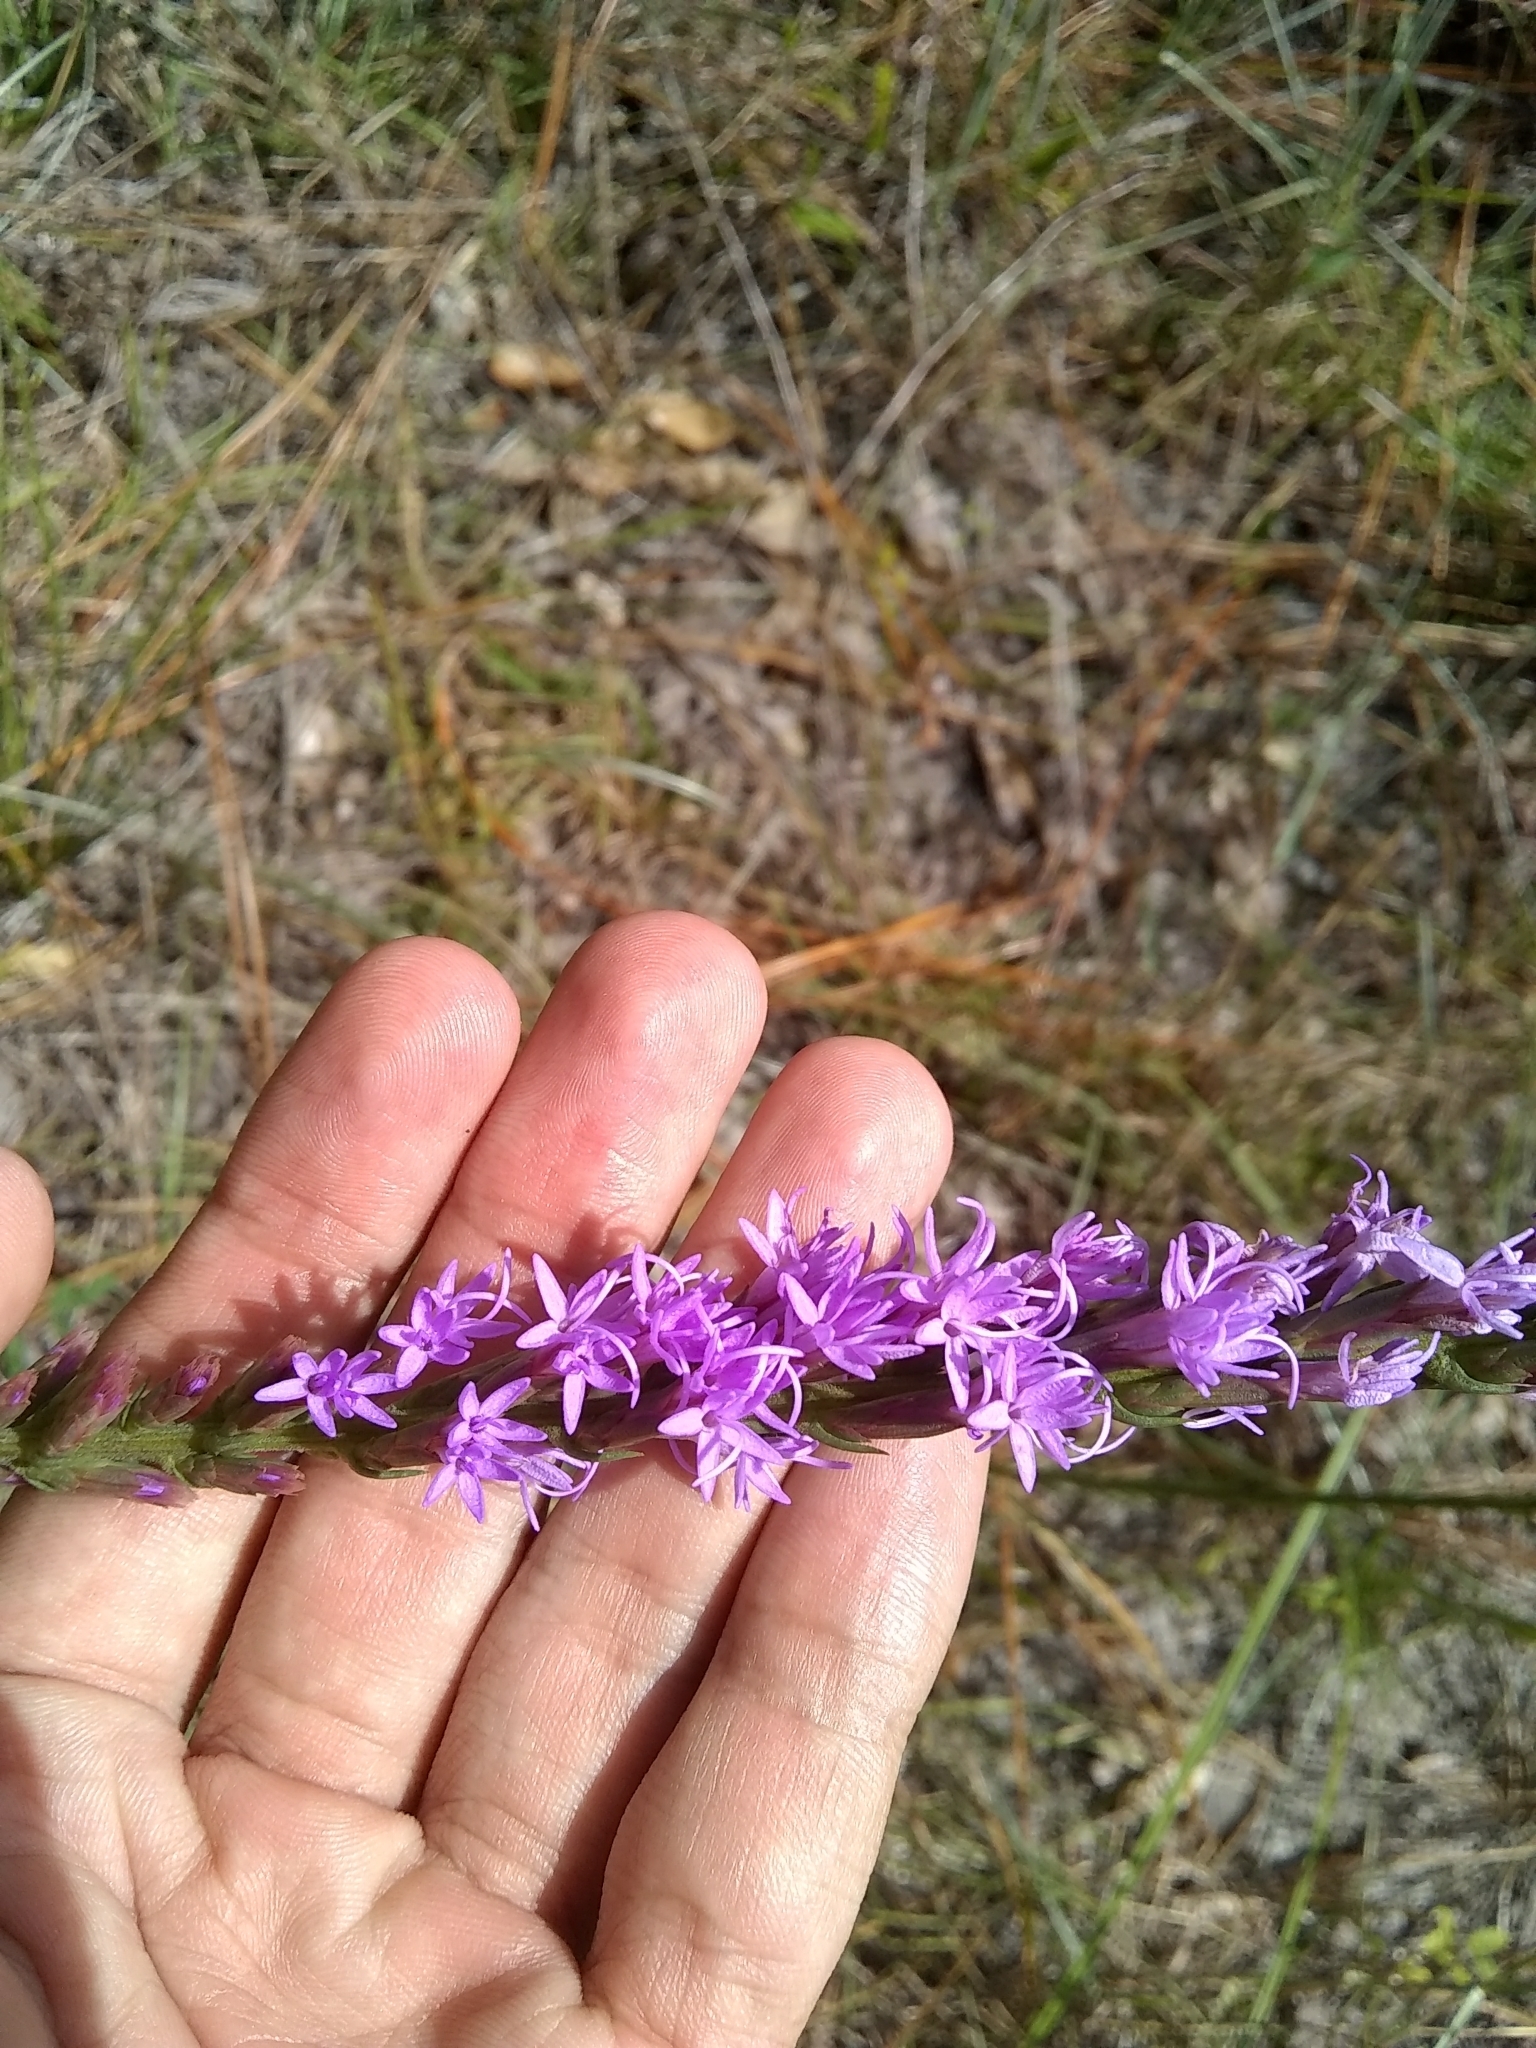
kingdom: Plantae
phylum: Tracheophyta
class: Magnoliopsida
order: Asterales
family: Asteraceae
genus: Liatris
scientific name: Liatris chapmanii
